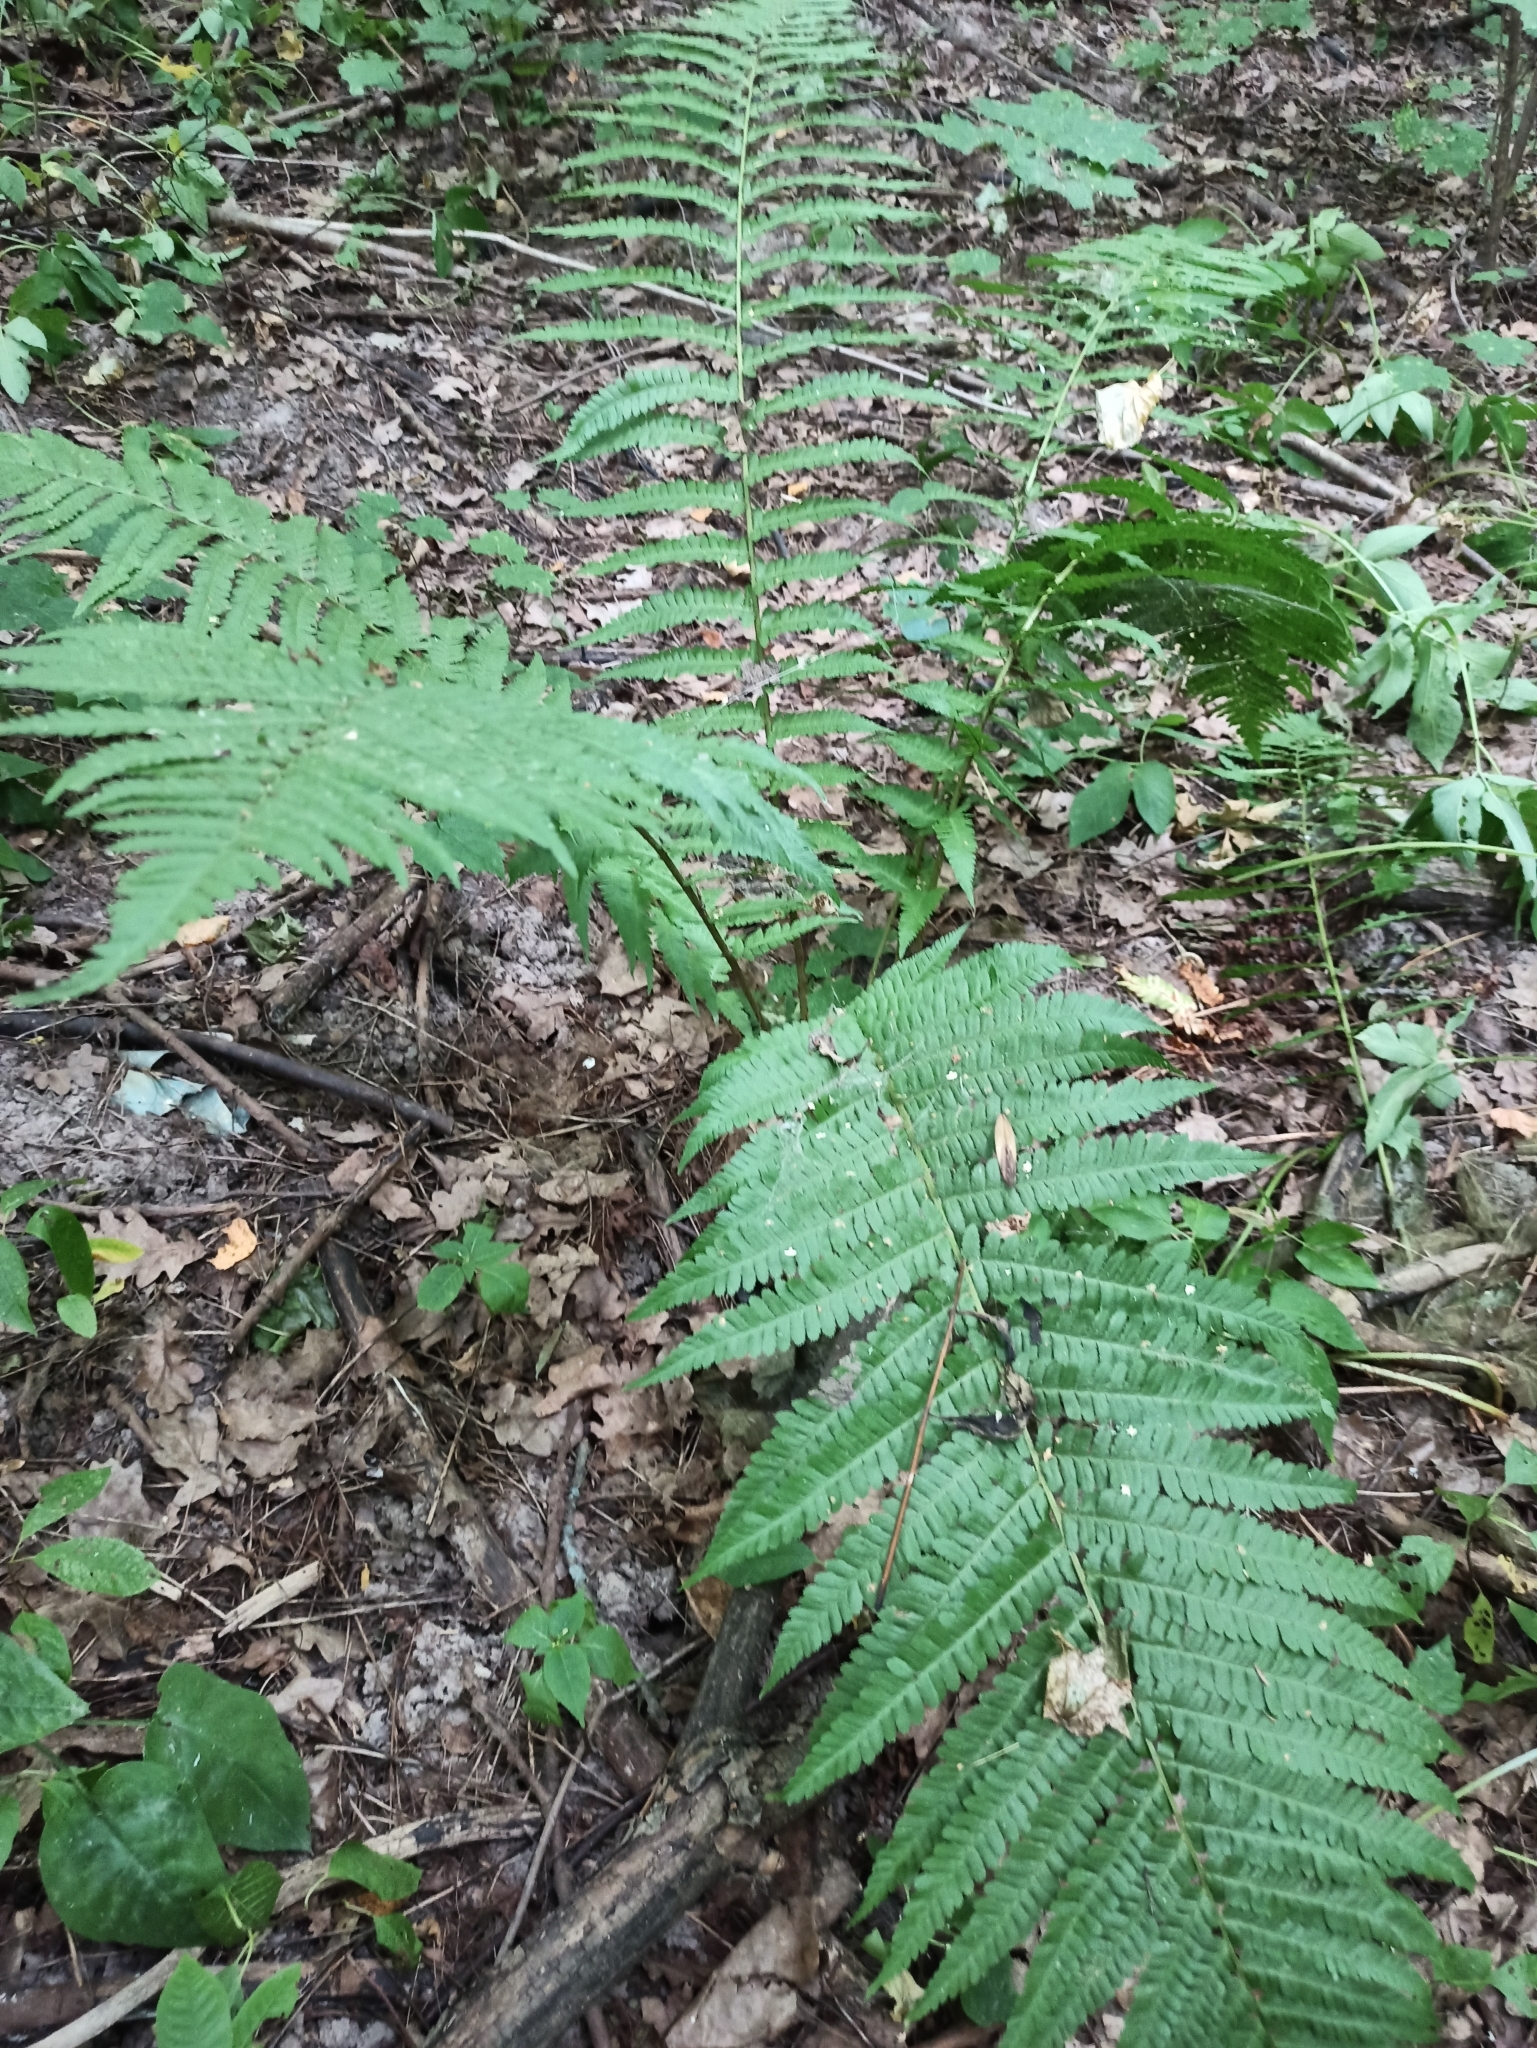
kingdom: Plantae
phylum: Tracheophyta
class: Polypodiopsida
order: Polypodiales
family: Dryopteridaceae
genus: Dryopteris
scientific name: Dryopteris filix-mas
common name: Male fern
